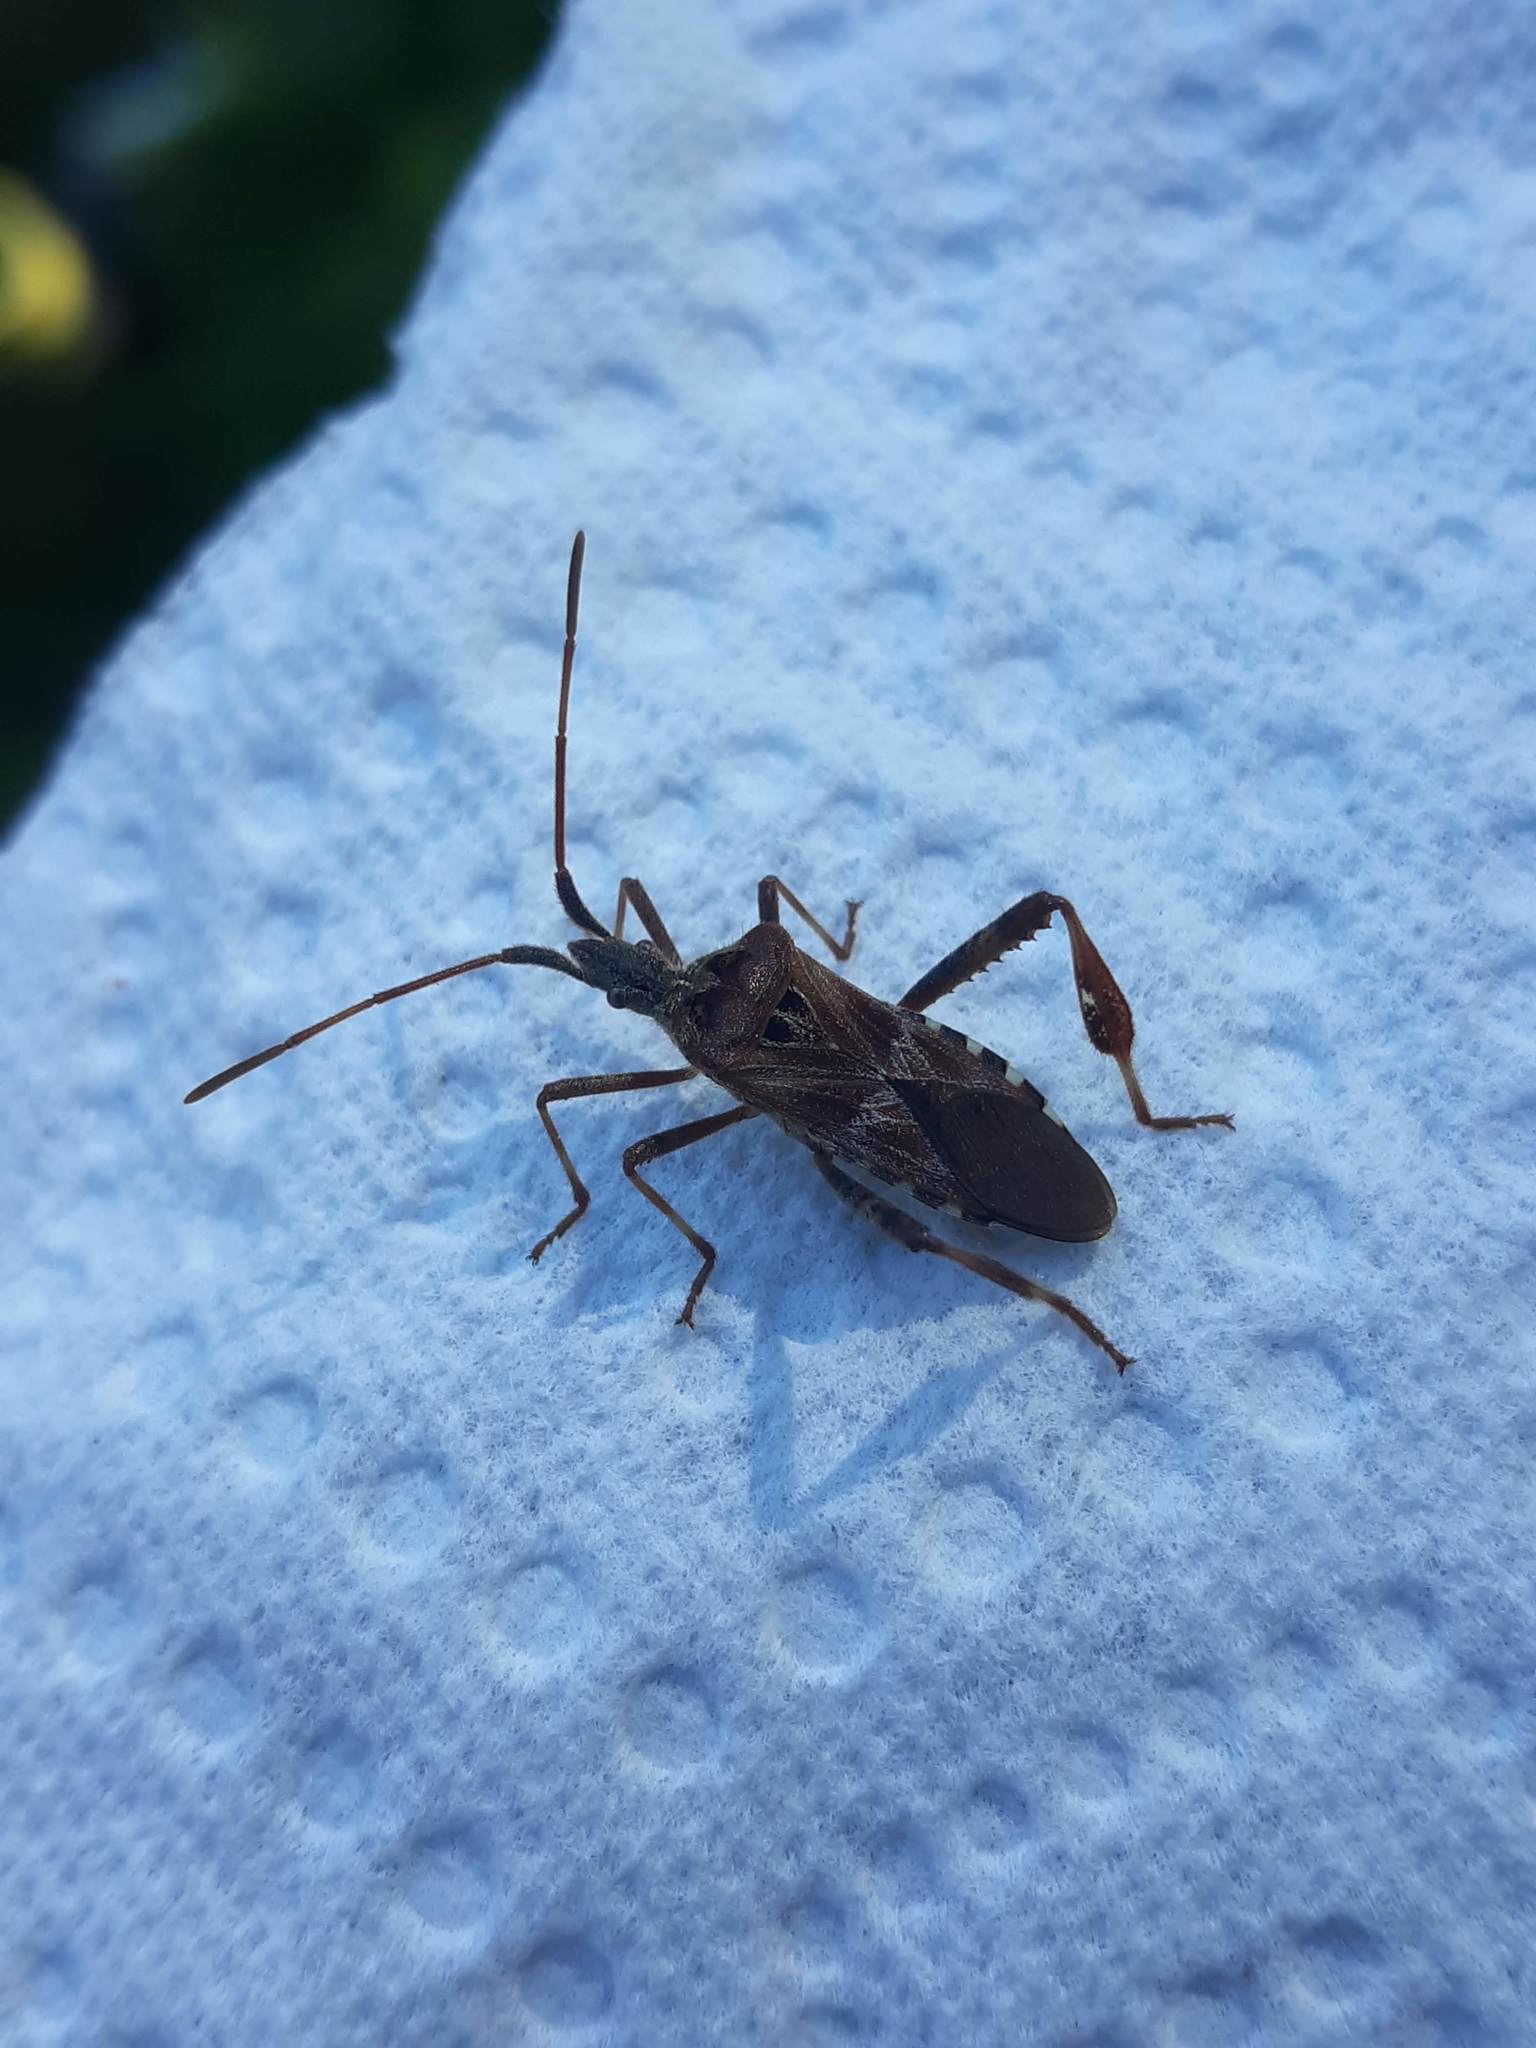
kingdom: Animalia
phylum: Arthropoda
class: Insecta
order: Hemiptera
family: Coreidae
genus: Leptoglossus
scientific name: Leptoglossus occidentalis
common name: Western conifer-seed bug
